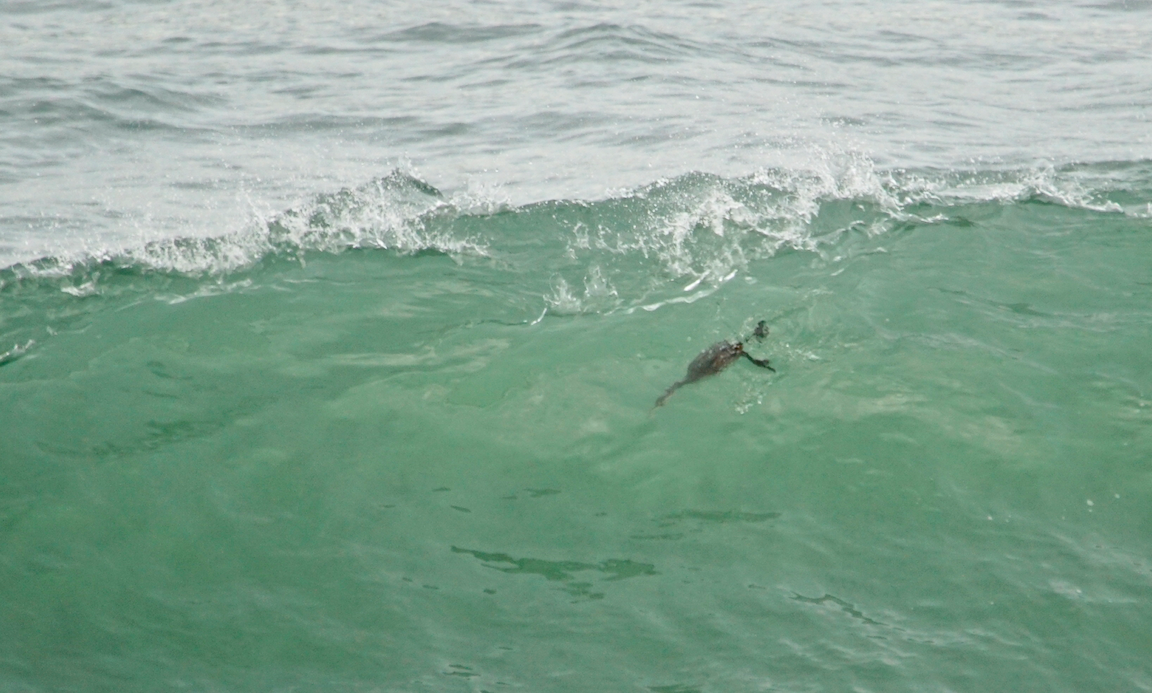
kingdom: Animalia
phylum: Chordata
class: Aves
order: Podicipediformes
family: Podicipedidae
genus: Podiceps
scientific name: Podiceps grisegena
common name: Red-necked grebe
